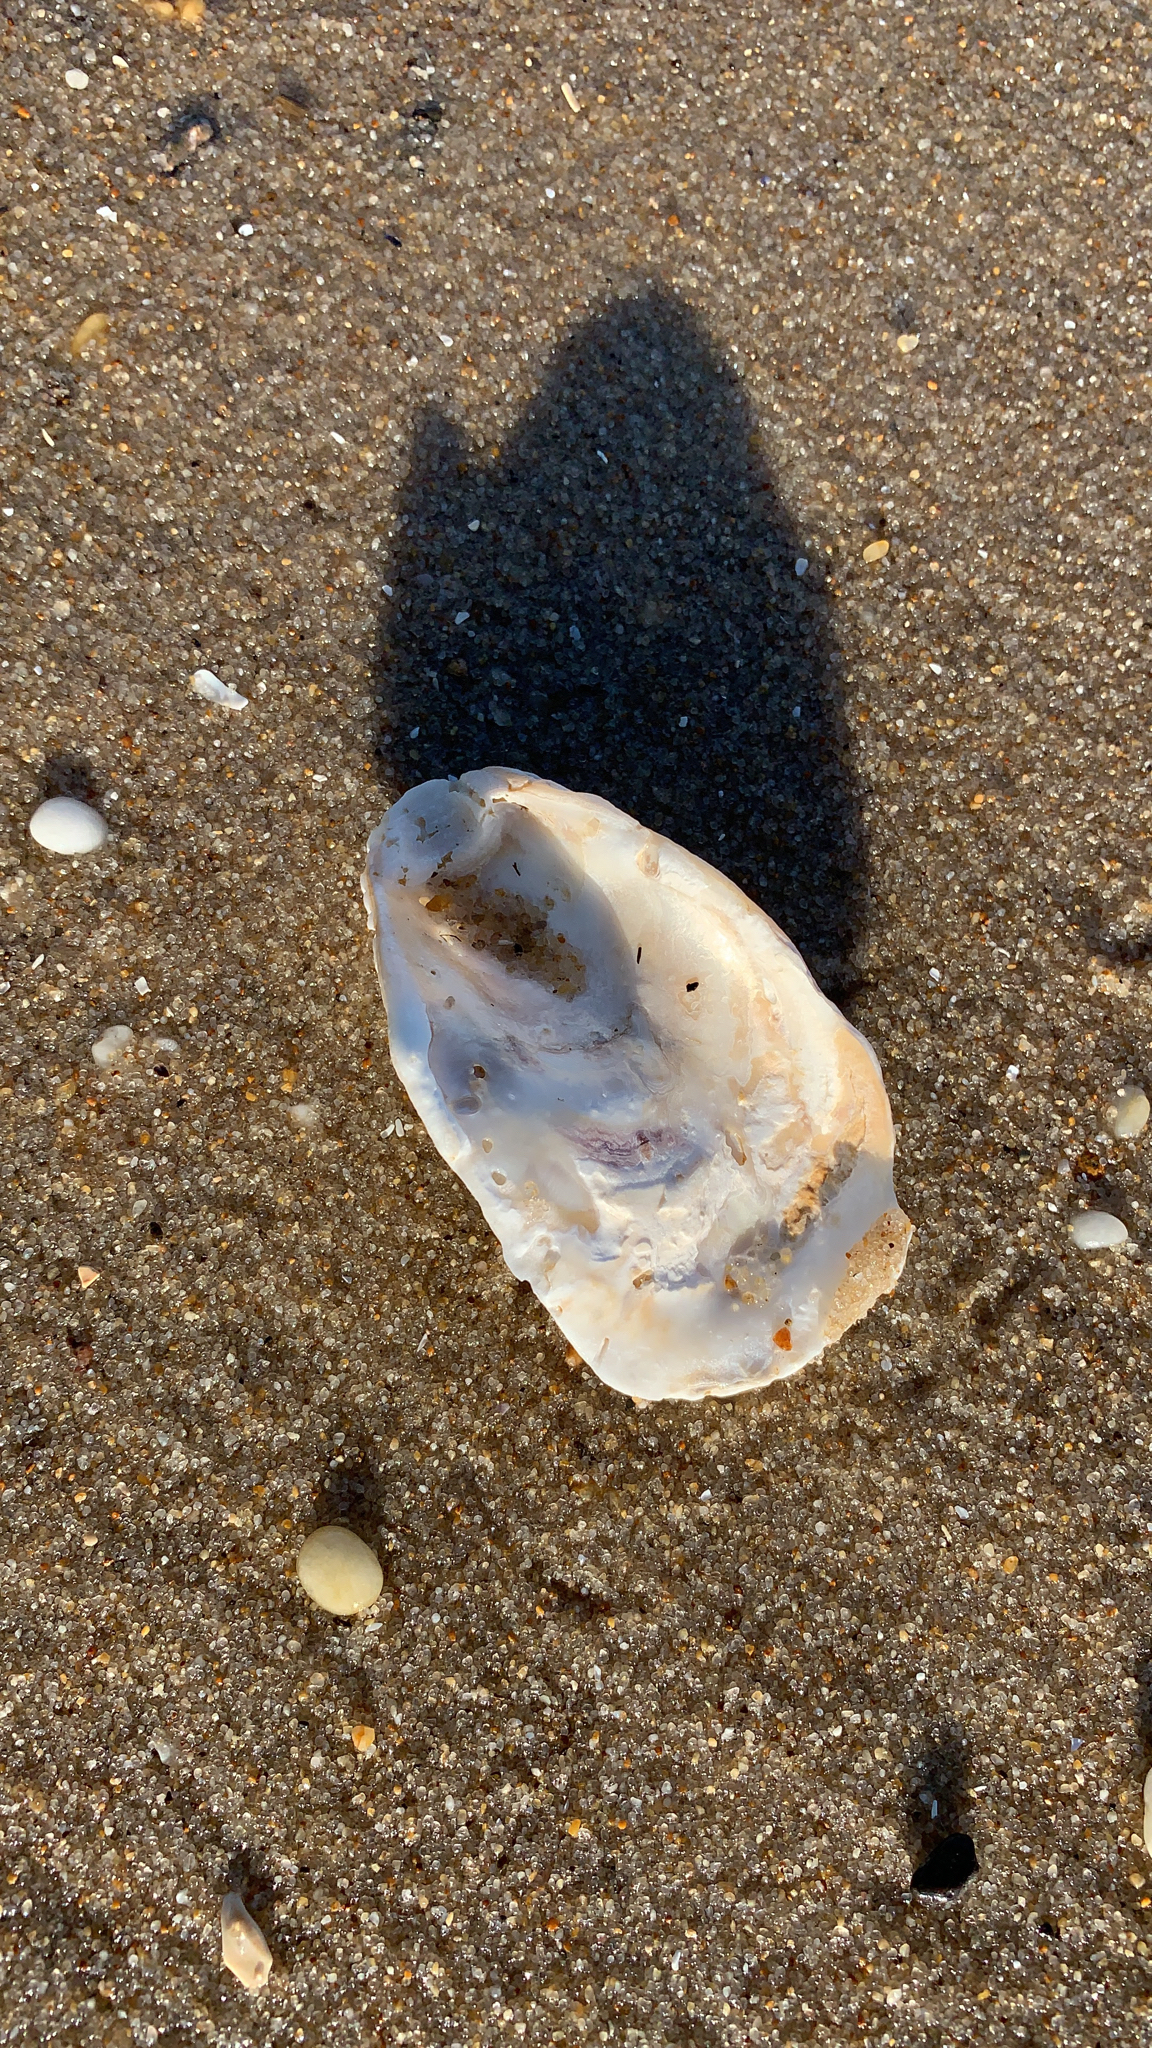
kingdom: Animalia
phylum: Mollusca
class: Bivalvia
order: Ostreida
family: Ostreidae
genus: Crassostrea
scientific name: Crassostrea virginica
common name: American oyster
